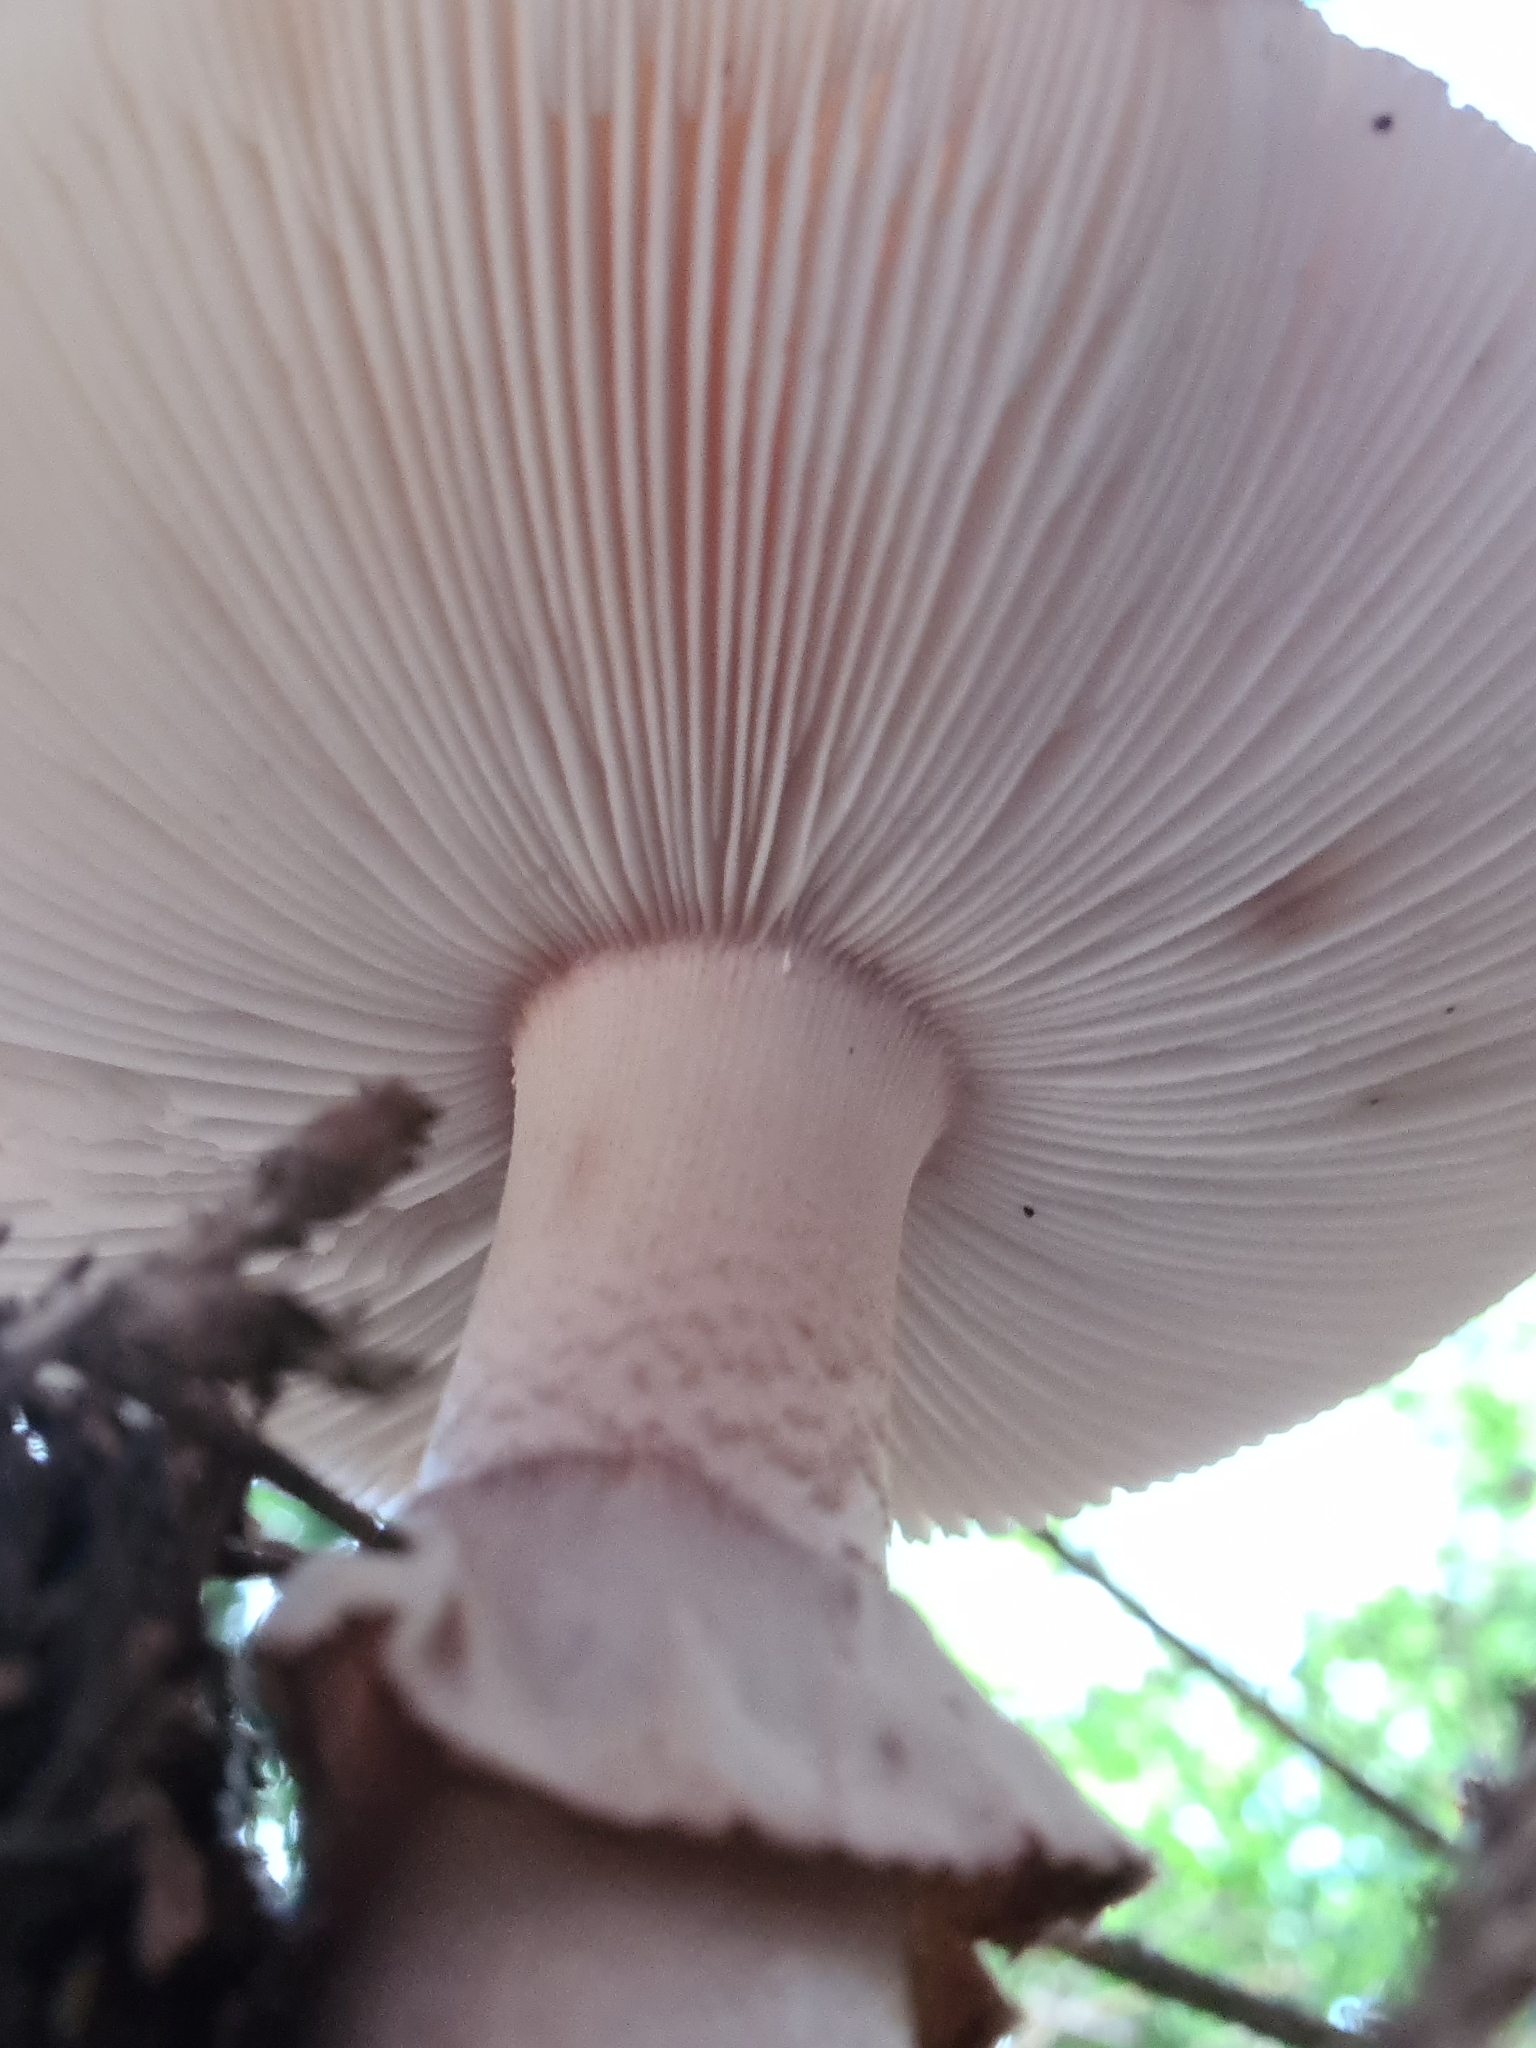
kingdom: Fungi
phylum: Basidiomycota
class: Agaricomycetes
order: Agaricales
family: Amanitaceae
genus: Amanita
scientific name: Amanita rubescens
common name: Blusher
